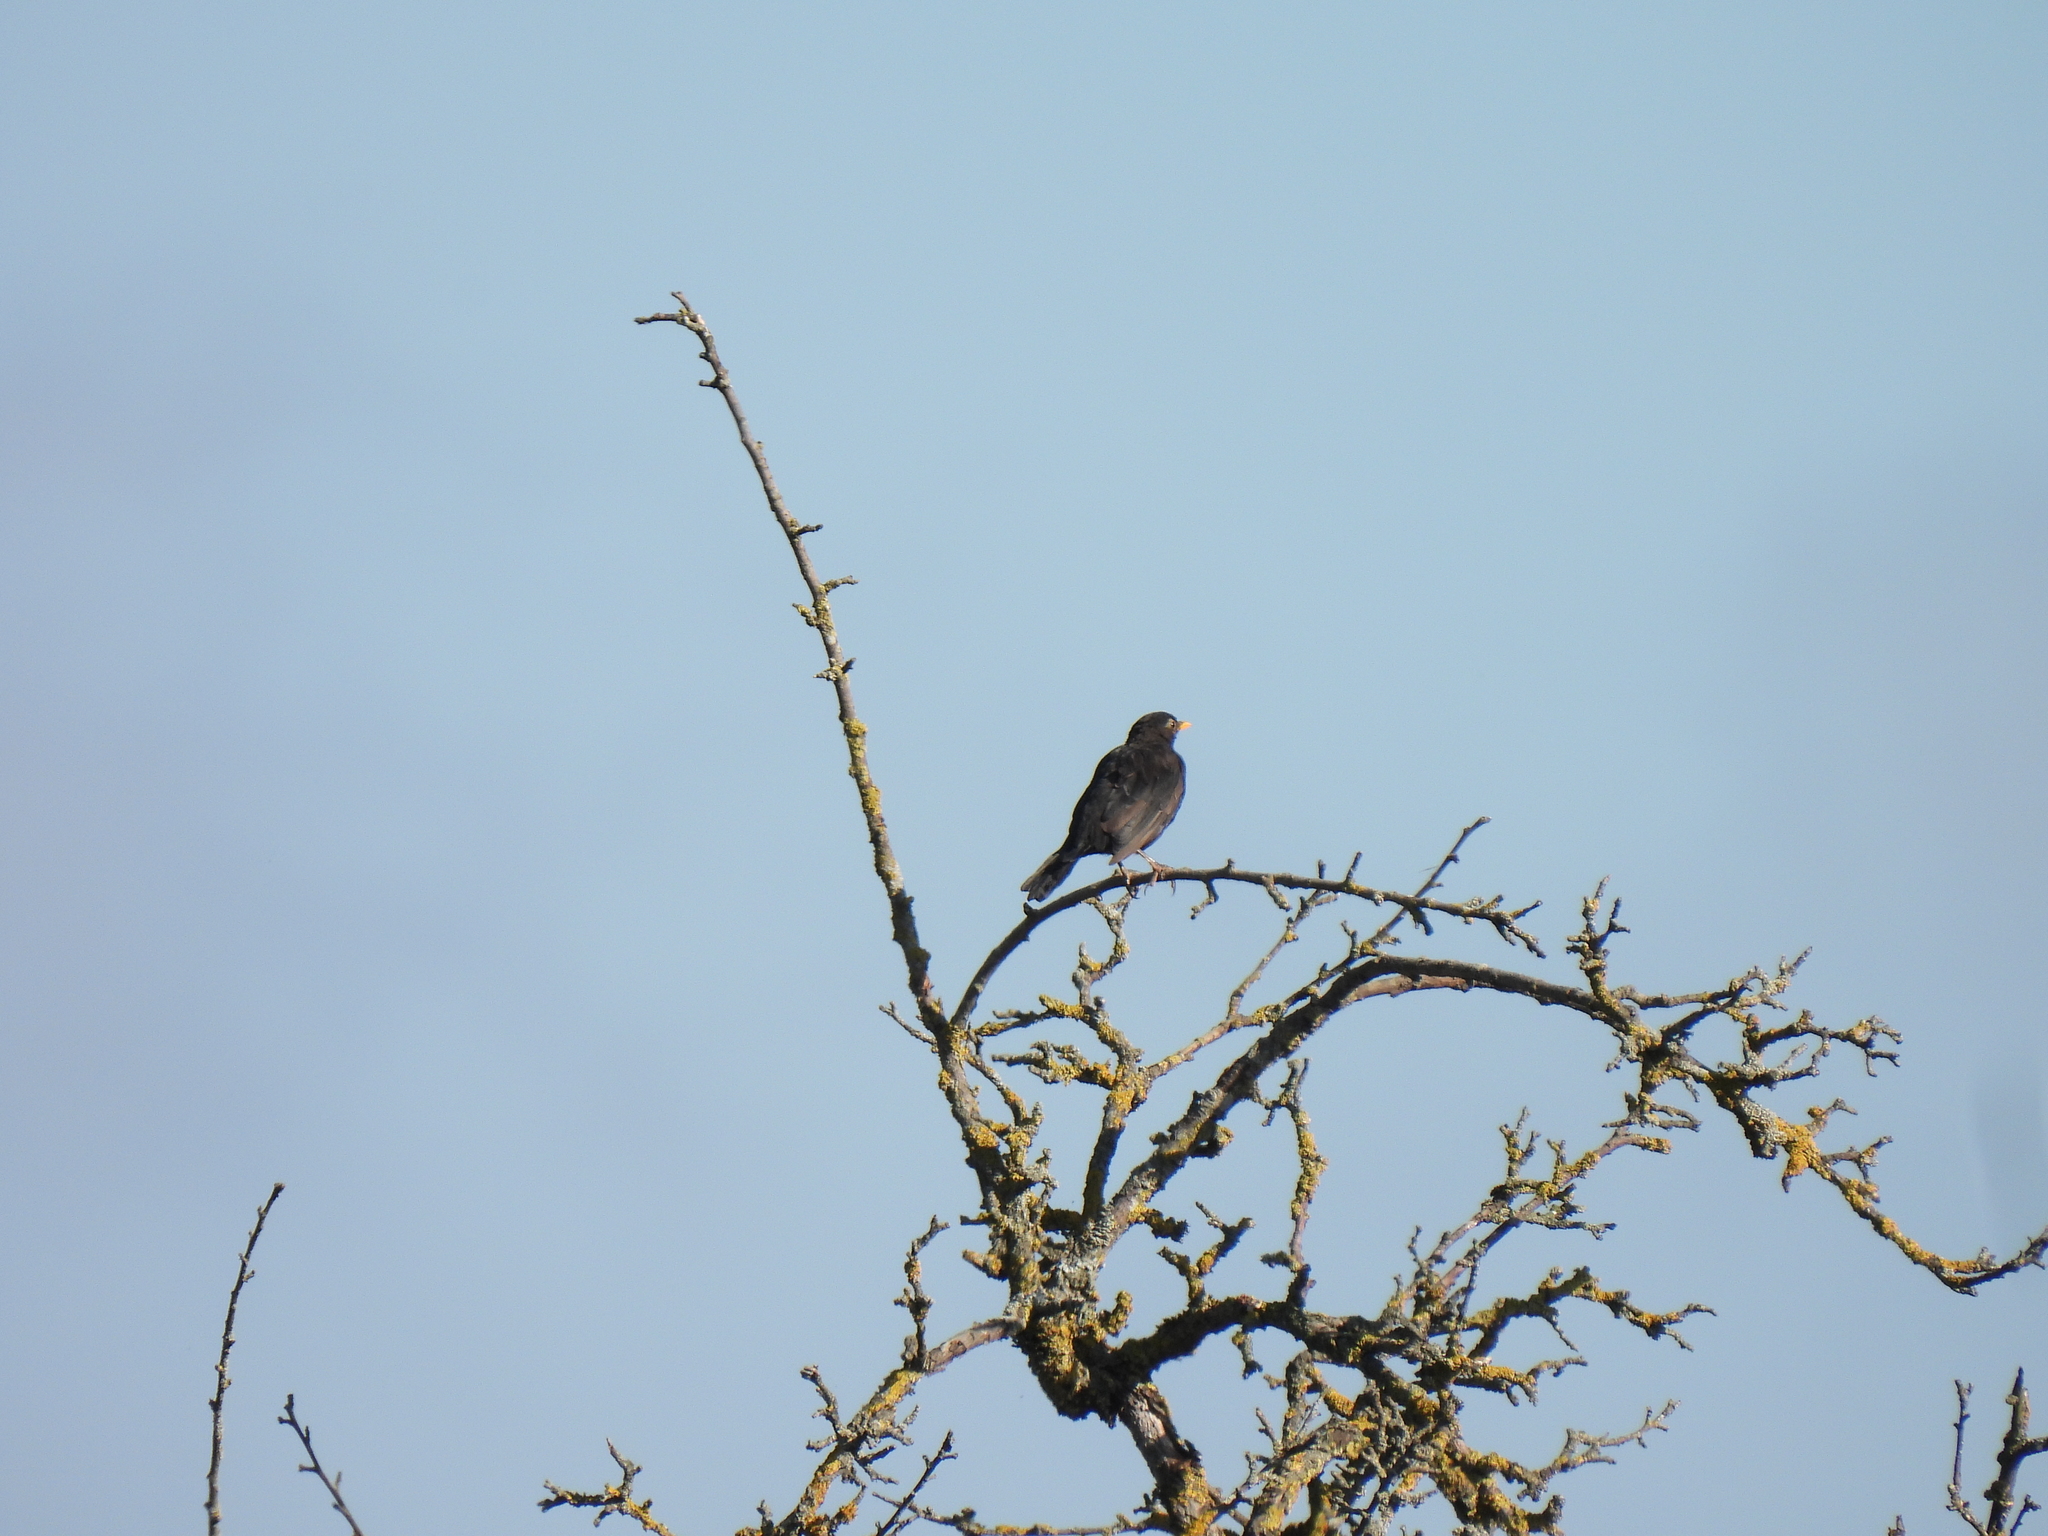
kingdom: Animalia
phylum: Chordata
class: Aves
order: Passeriformes
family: Turdidae
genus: Turdus
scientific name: Turdus merula
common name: Common blackbird
